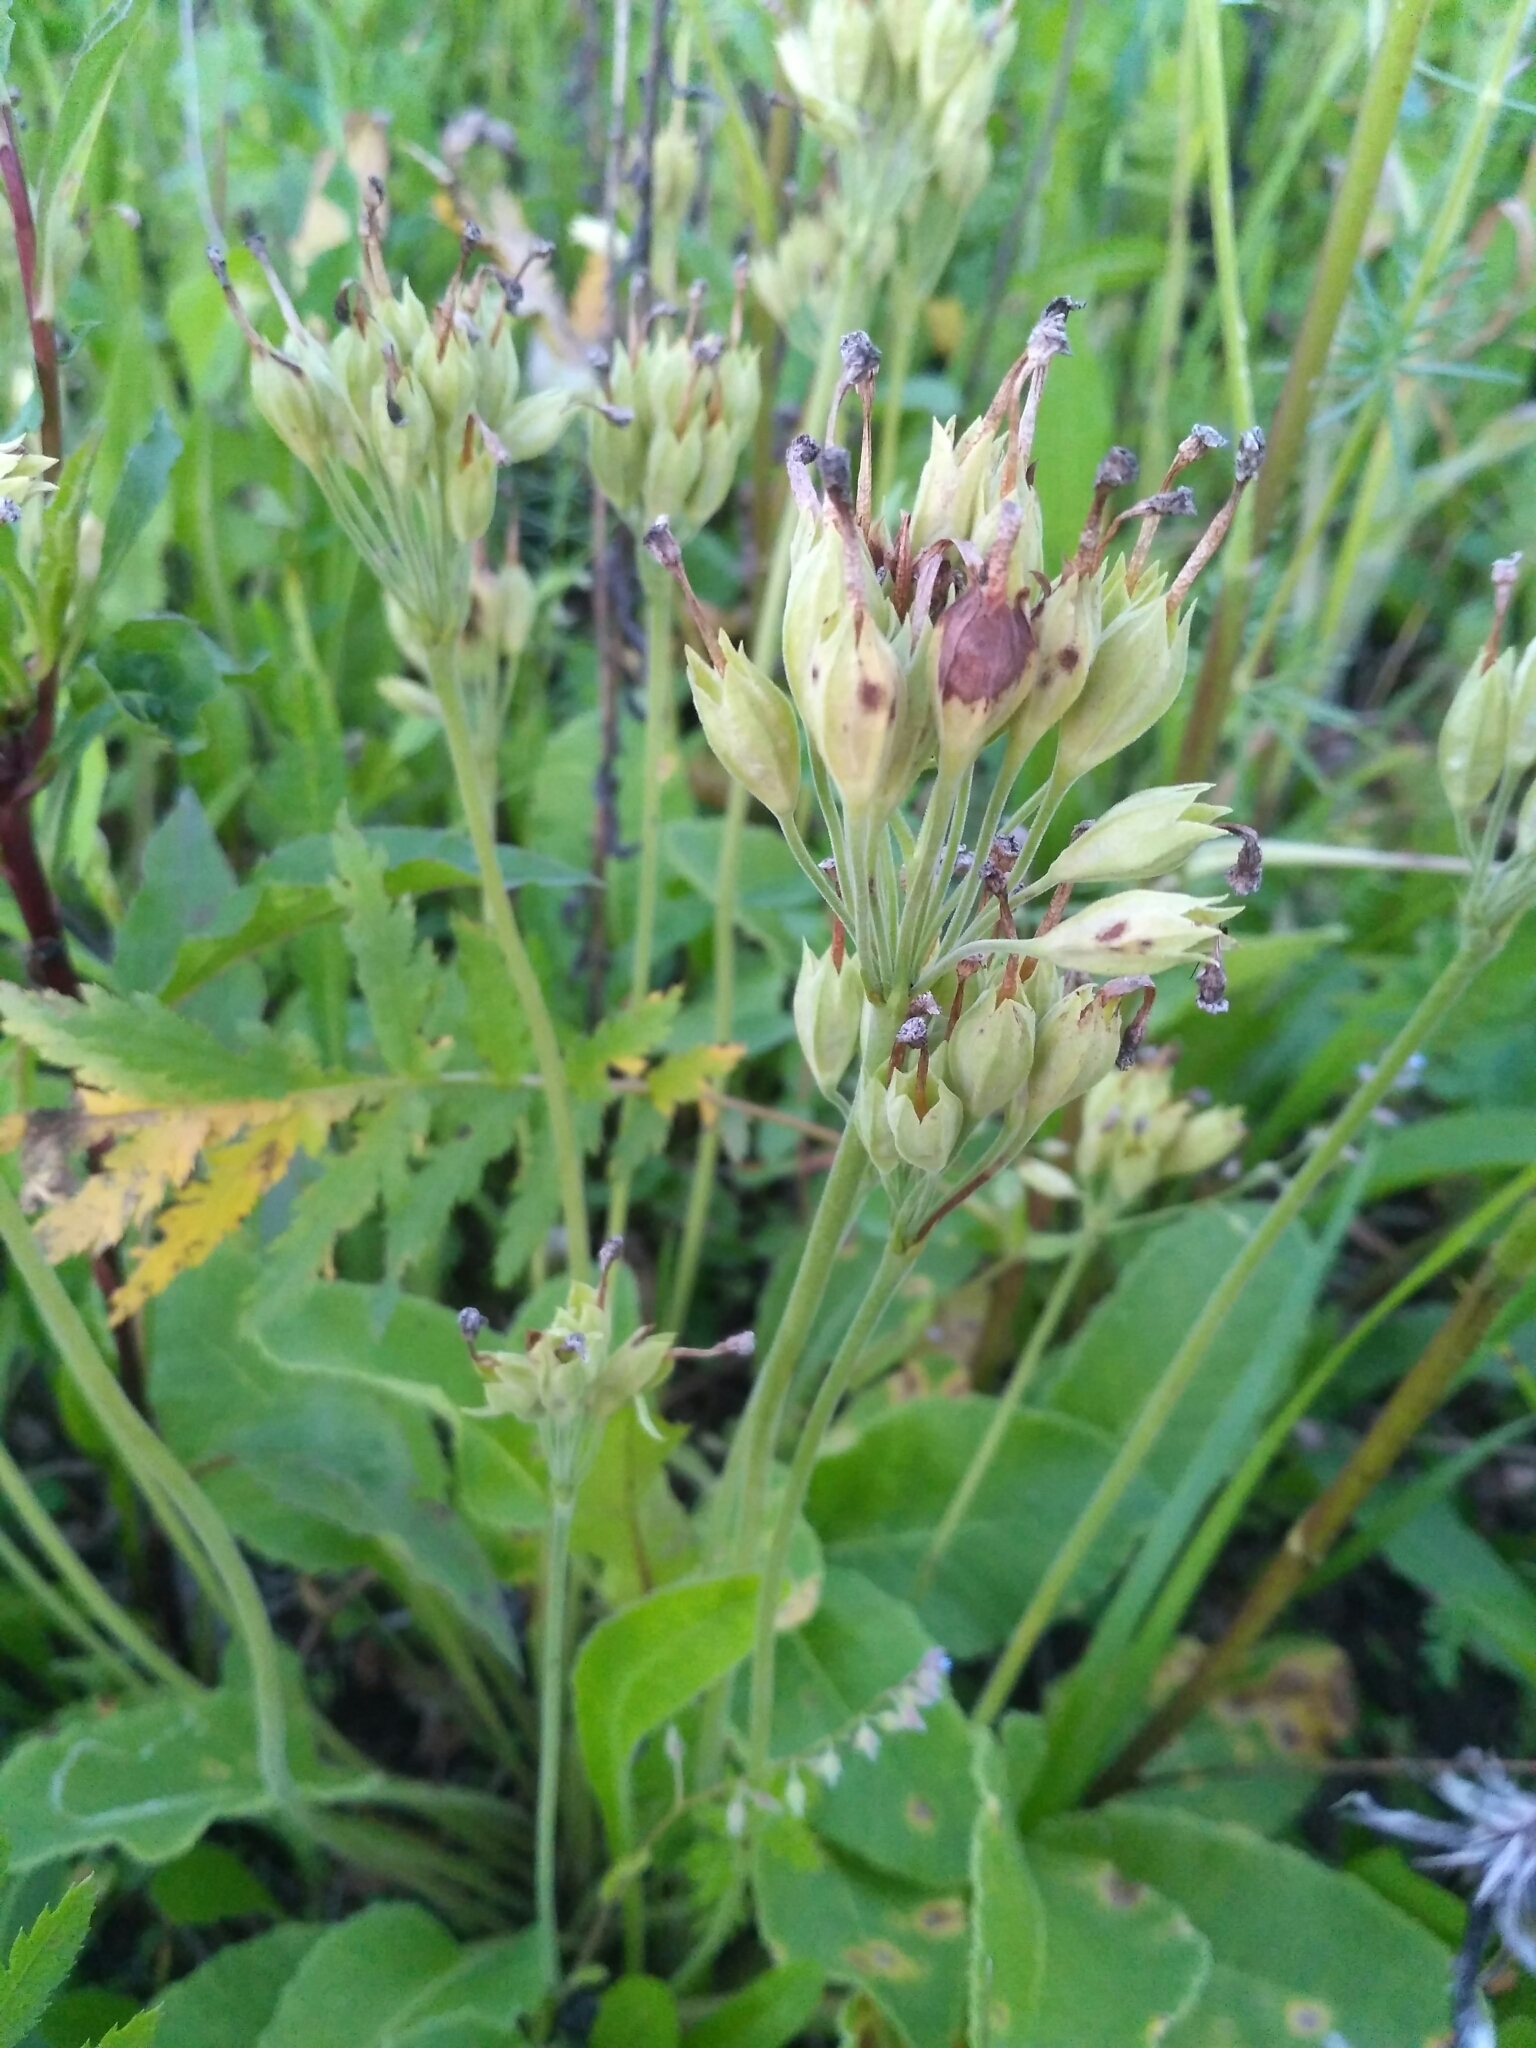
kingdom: Plantae
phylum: Tracheophyta
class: Magnoliopsida
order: Ericales
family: Primulaceae
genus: Primula
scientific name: Primula veris
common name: Cowslip
